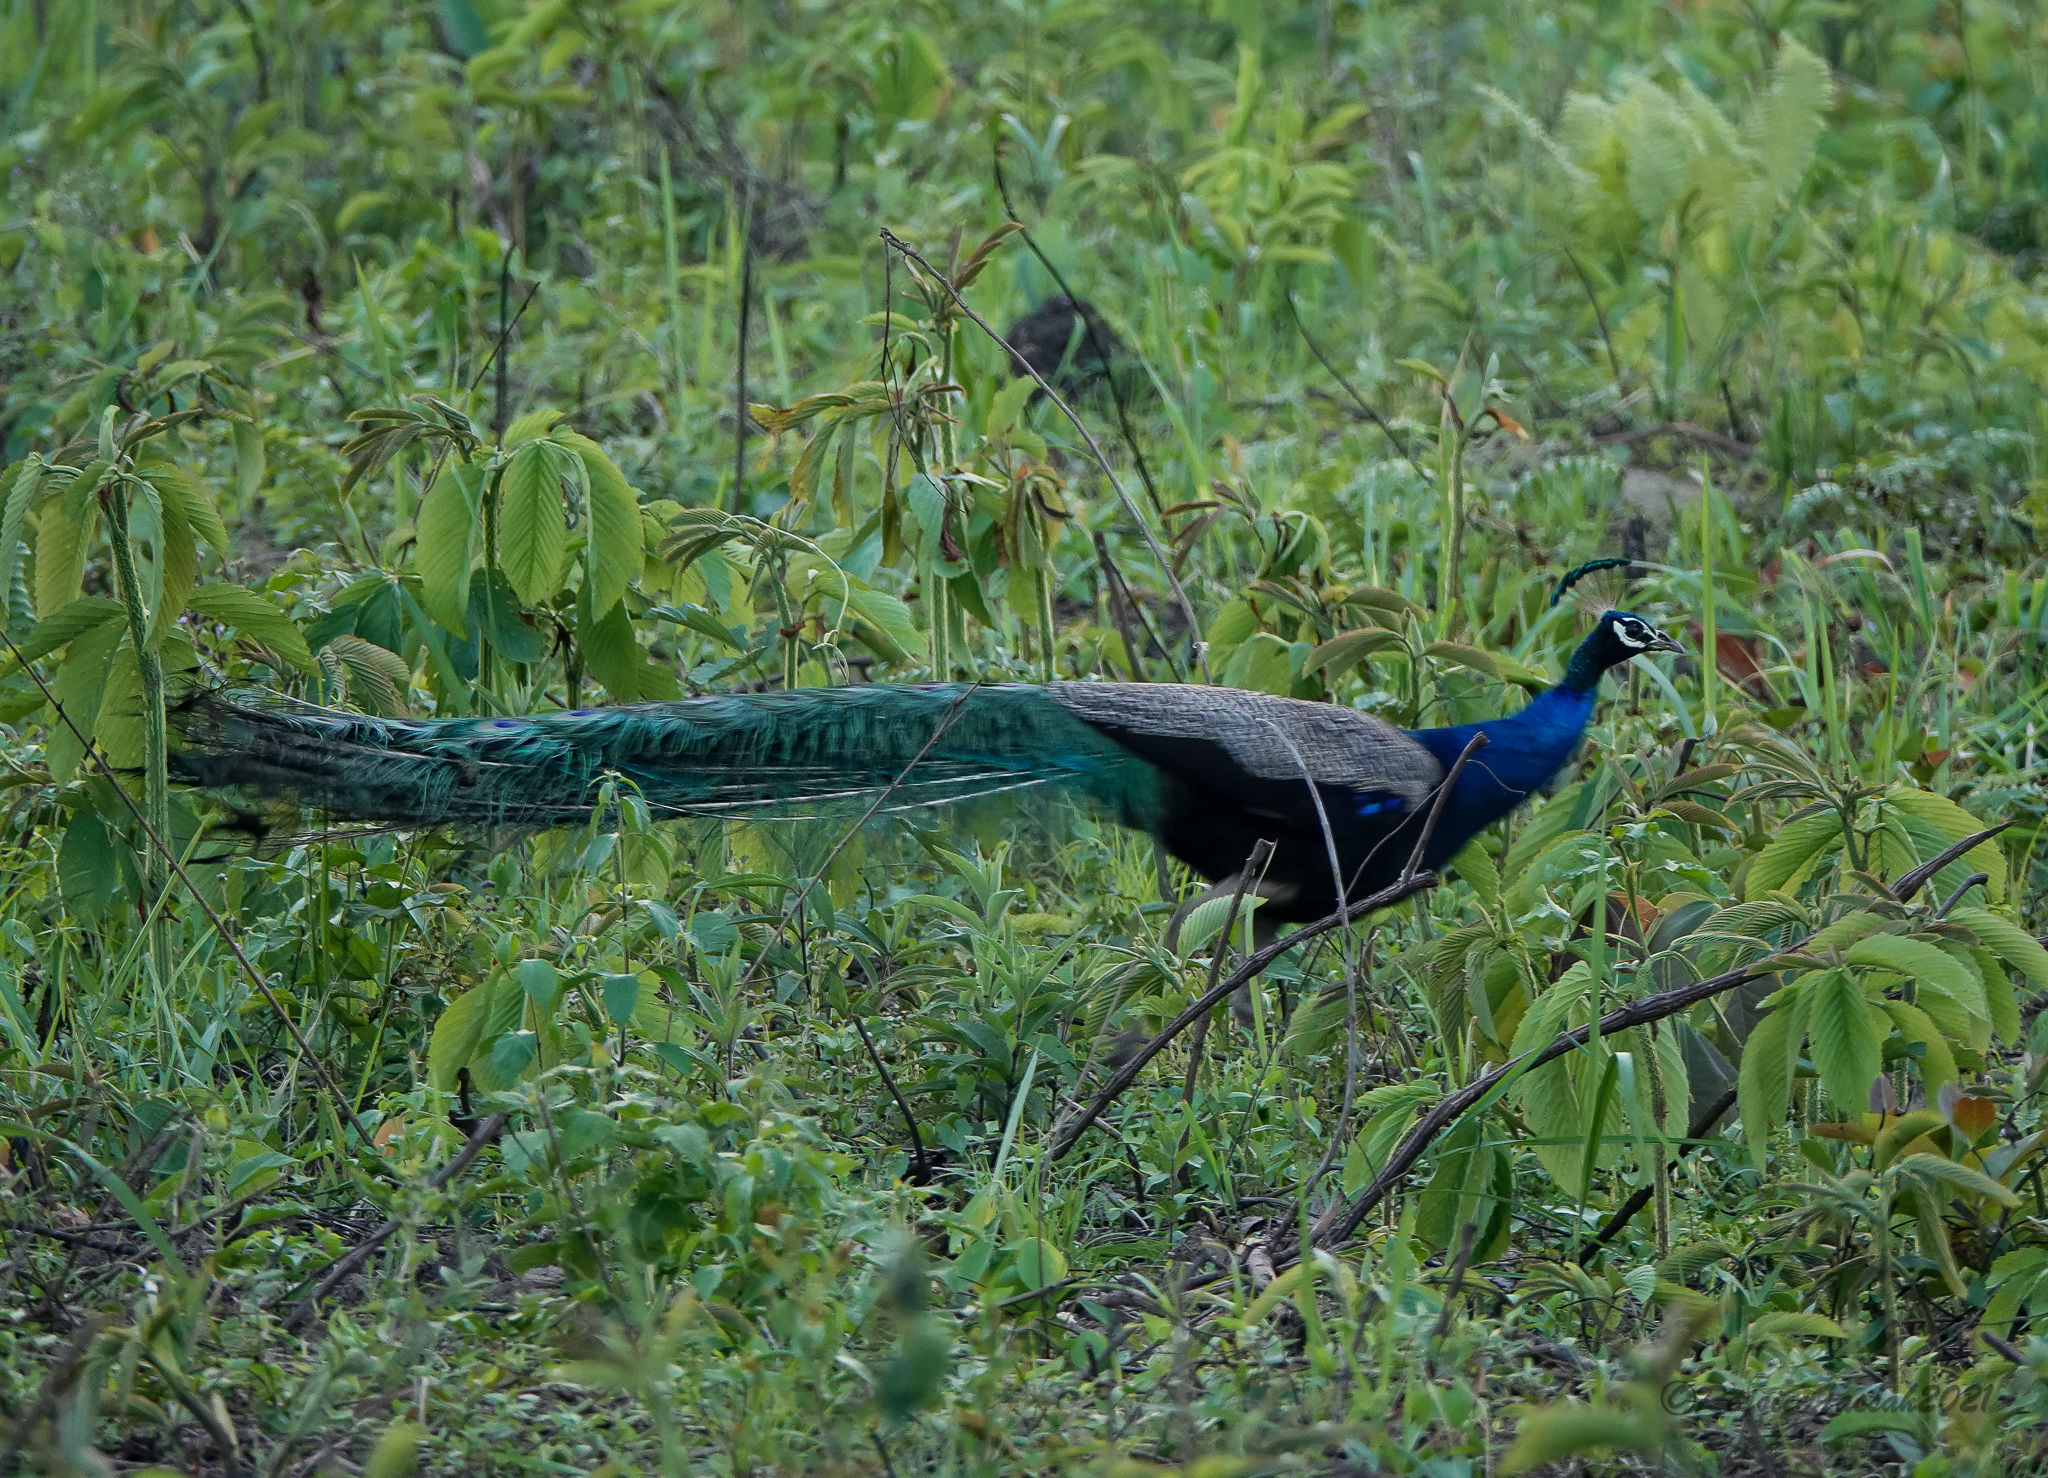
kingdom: Animalia
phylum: Chordata
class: Aves
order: Galliformes
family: Phasianidae
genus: Pavo
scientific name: Pavo cristatus
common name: Indian peafowl
